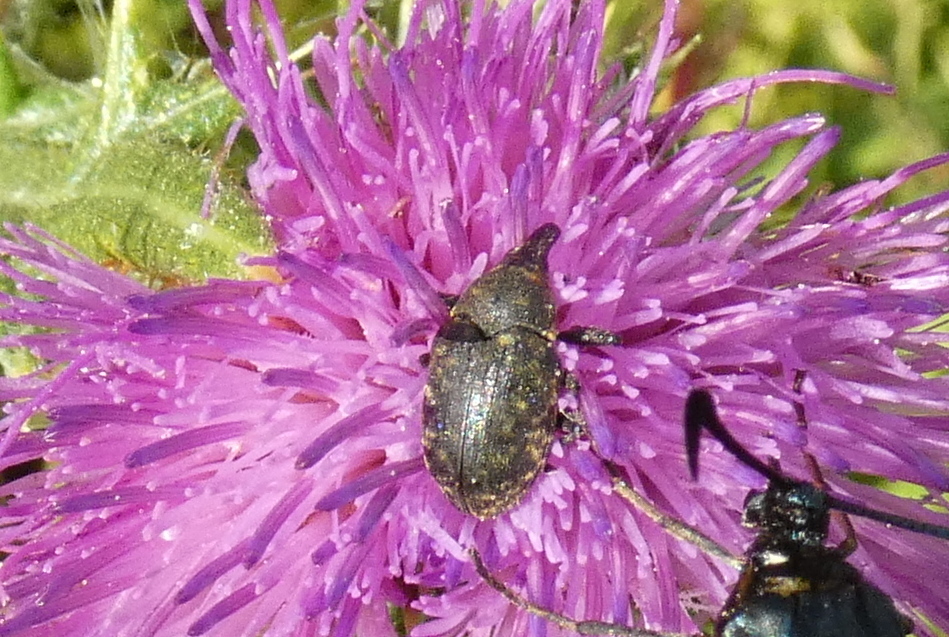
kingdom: Animalia
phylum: Arthropoda
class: Insecta
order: Coleoptera
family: Curculionidae
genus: Larinus
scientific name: Larinus turbinatus
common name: Weevil
